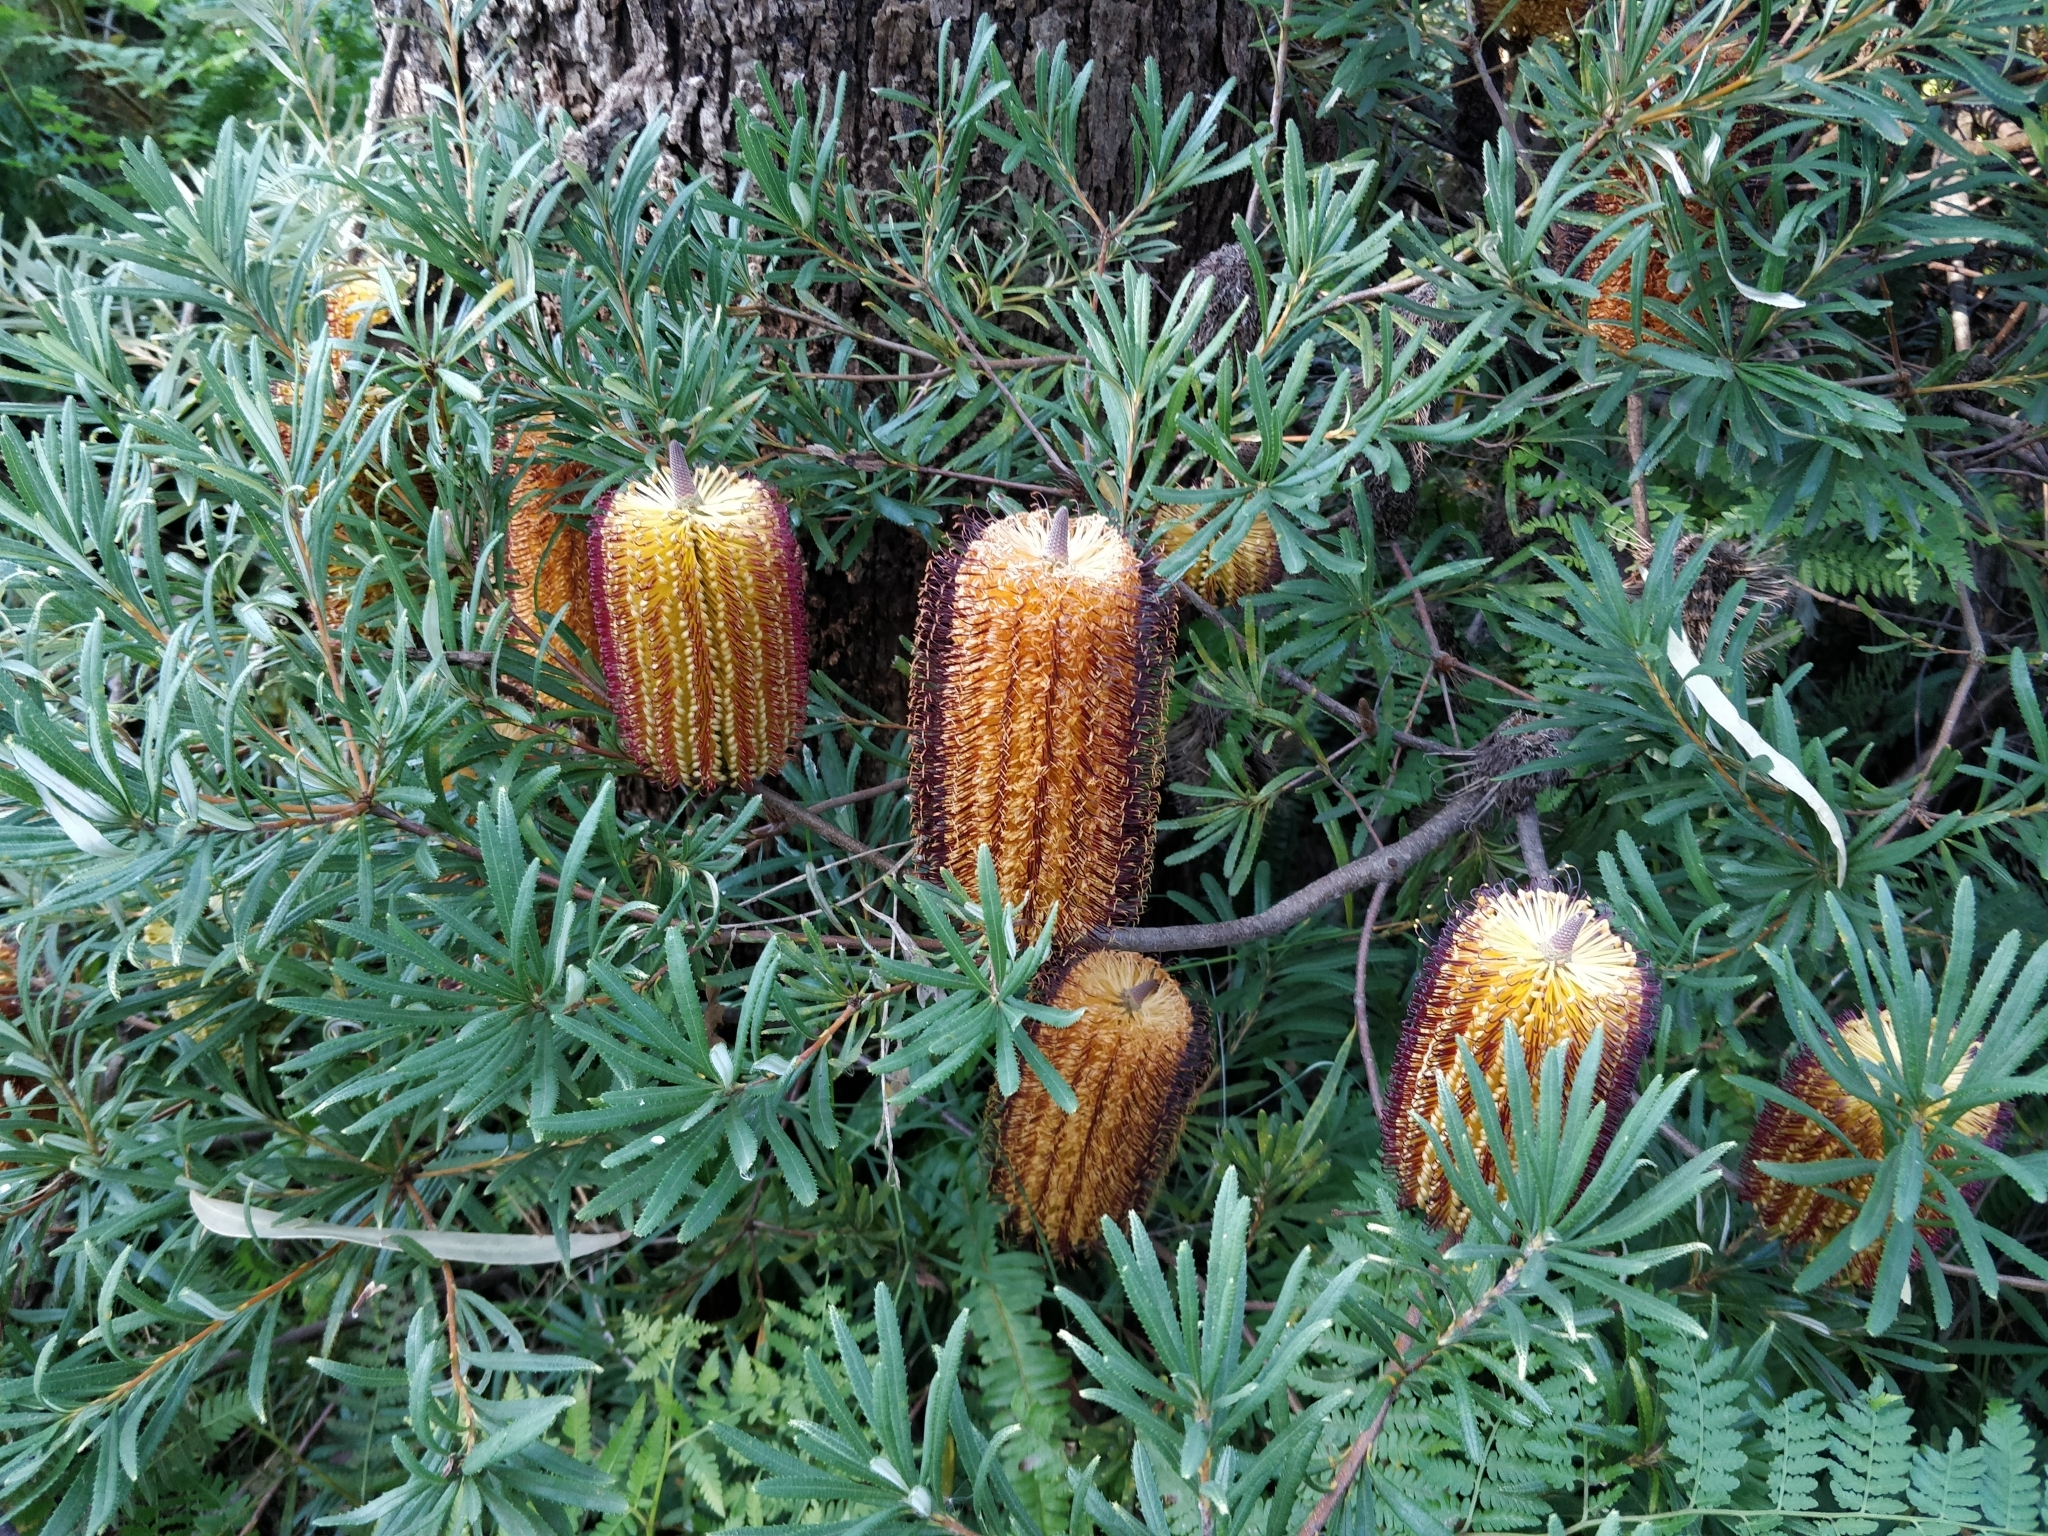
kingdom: Plantae
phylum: Tracheophyta
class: Magnoliopsida
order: Proteales
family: Proteaceae
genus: Banksia
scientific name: Banksia spinulosa
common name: Hairpin banksia
